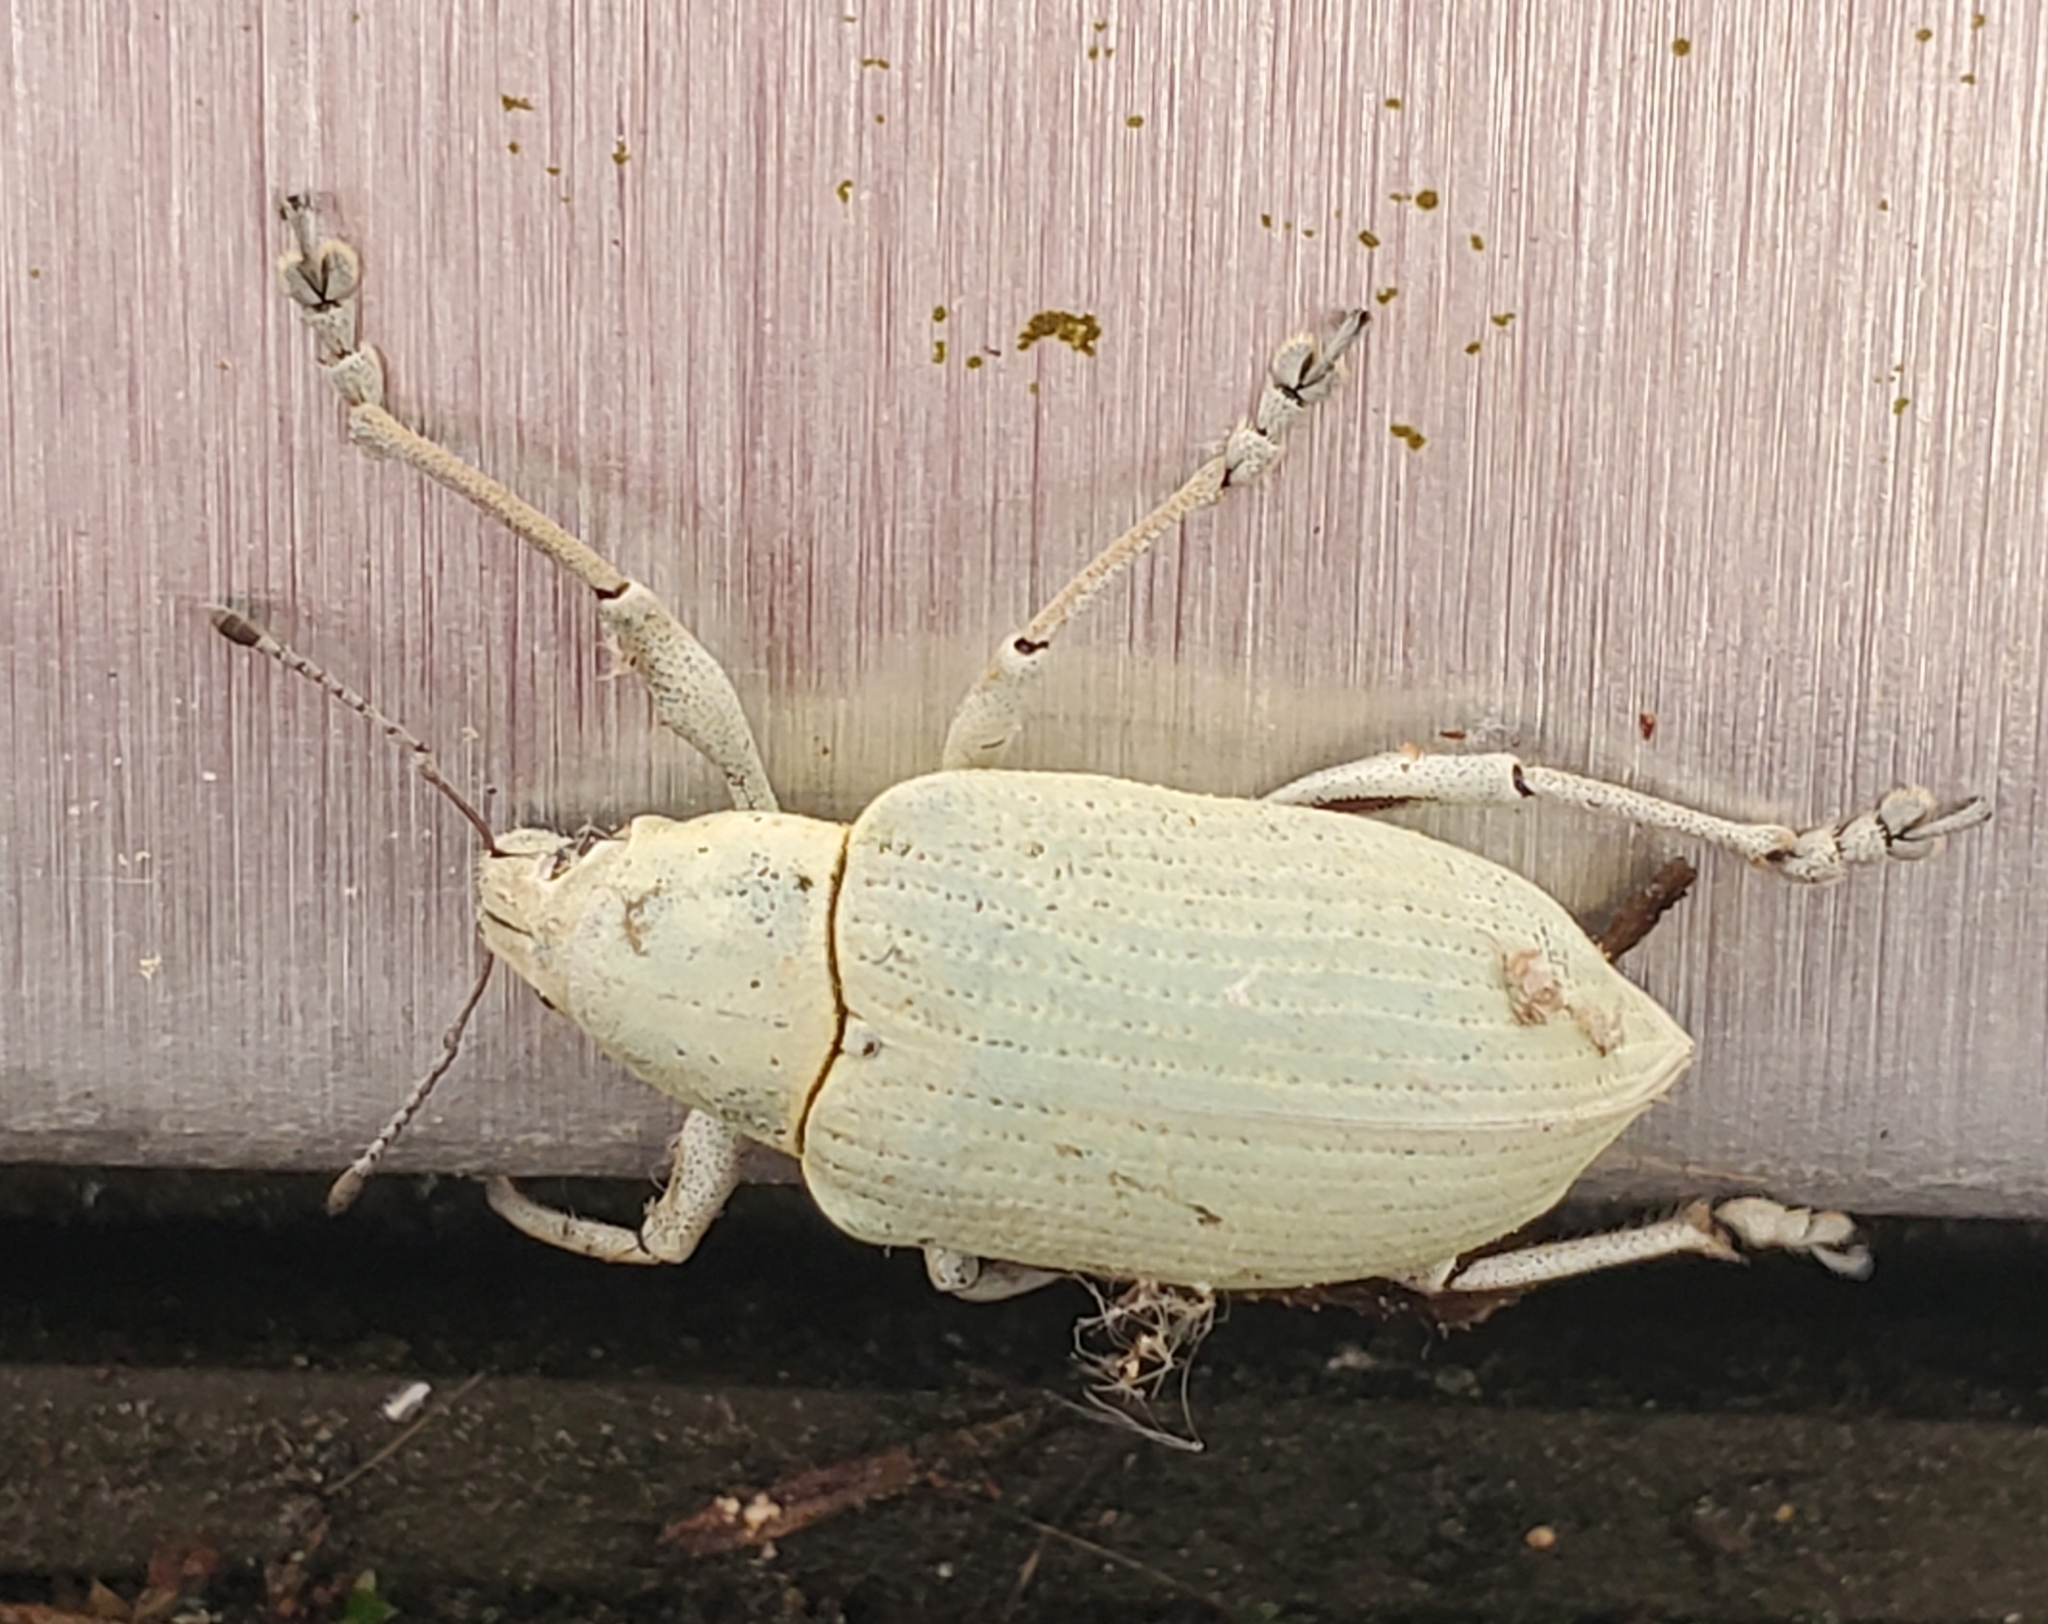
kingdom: Animalia
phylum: Arthropoda
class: Insecta
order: Coleoptera
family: Curculionidae
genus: Pachnaeus
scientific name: Pachnaeus opalus
